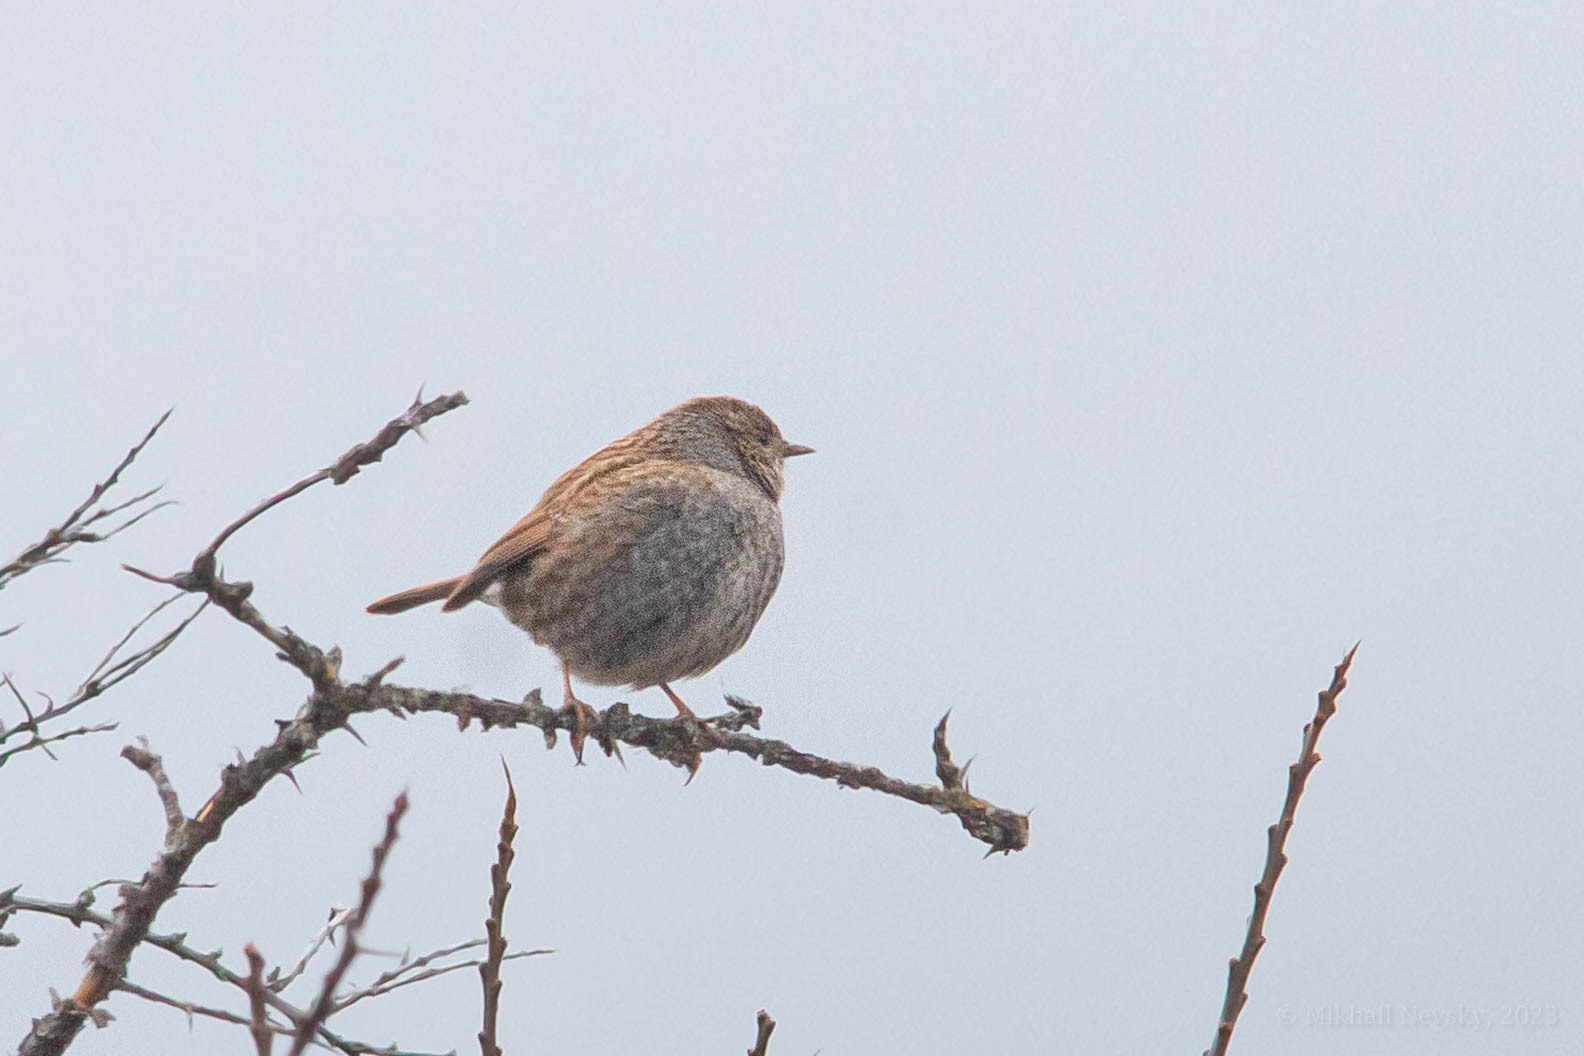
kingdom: Animalia
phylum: Chordata
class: Aves
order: Passeriformes
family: Prunellidae
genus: Prunella
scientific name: Prunella modularis
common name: Dunnock
